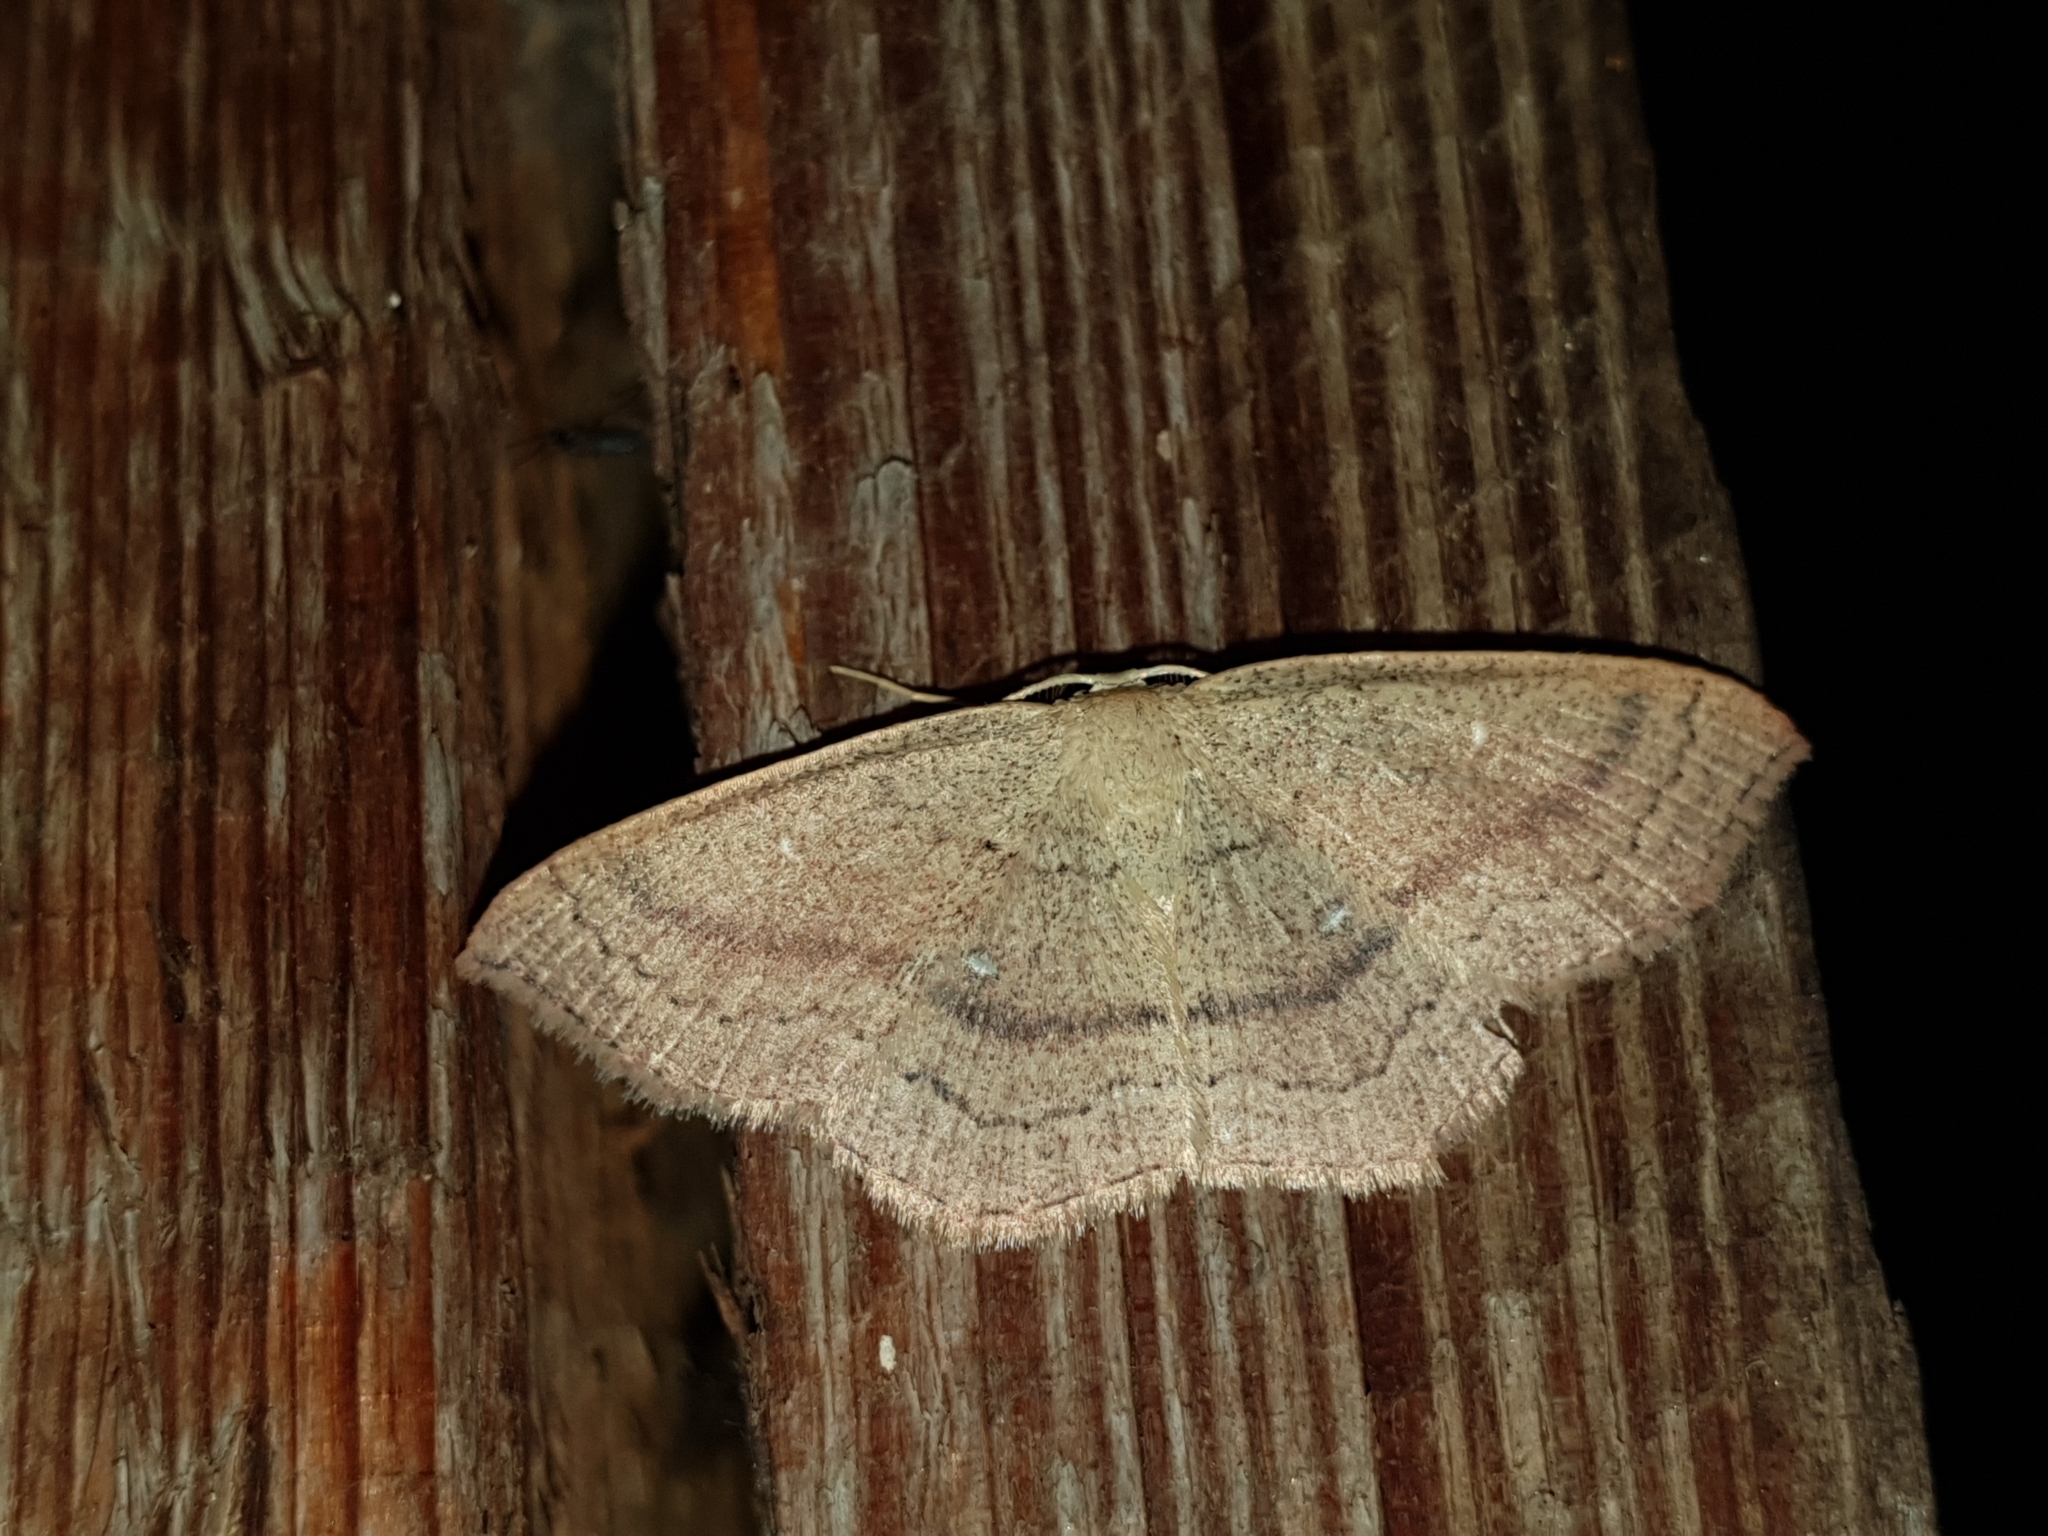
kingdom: Animalia
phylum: Arthropoda
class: Insecta
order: Lepidoptera
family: Geometridae
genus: Cyclophora
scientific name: Cyclophora linearia
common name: Clay triple-lines
